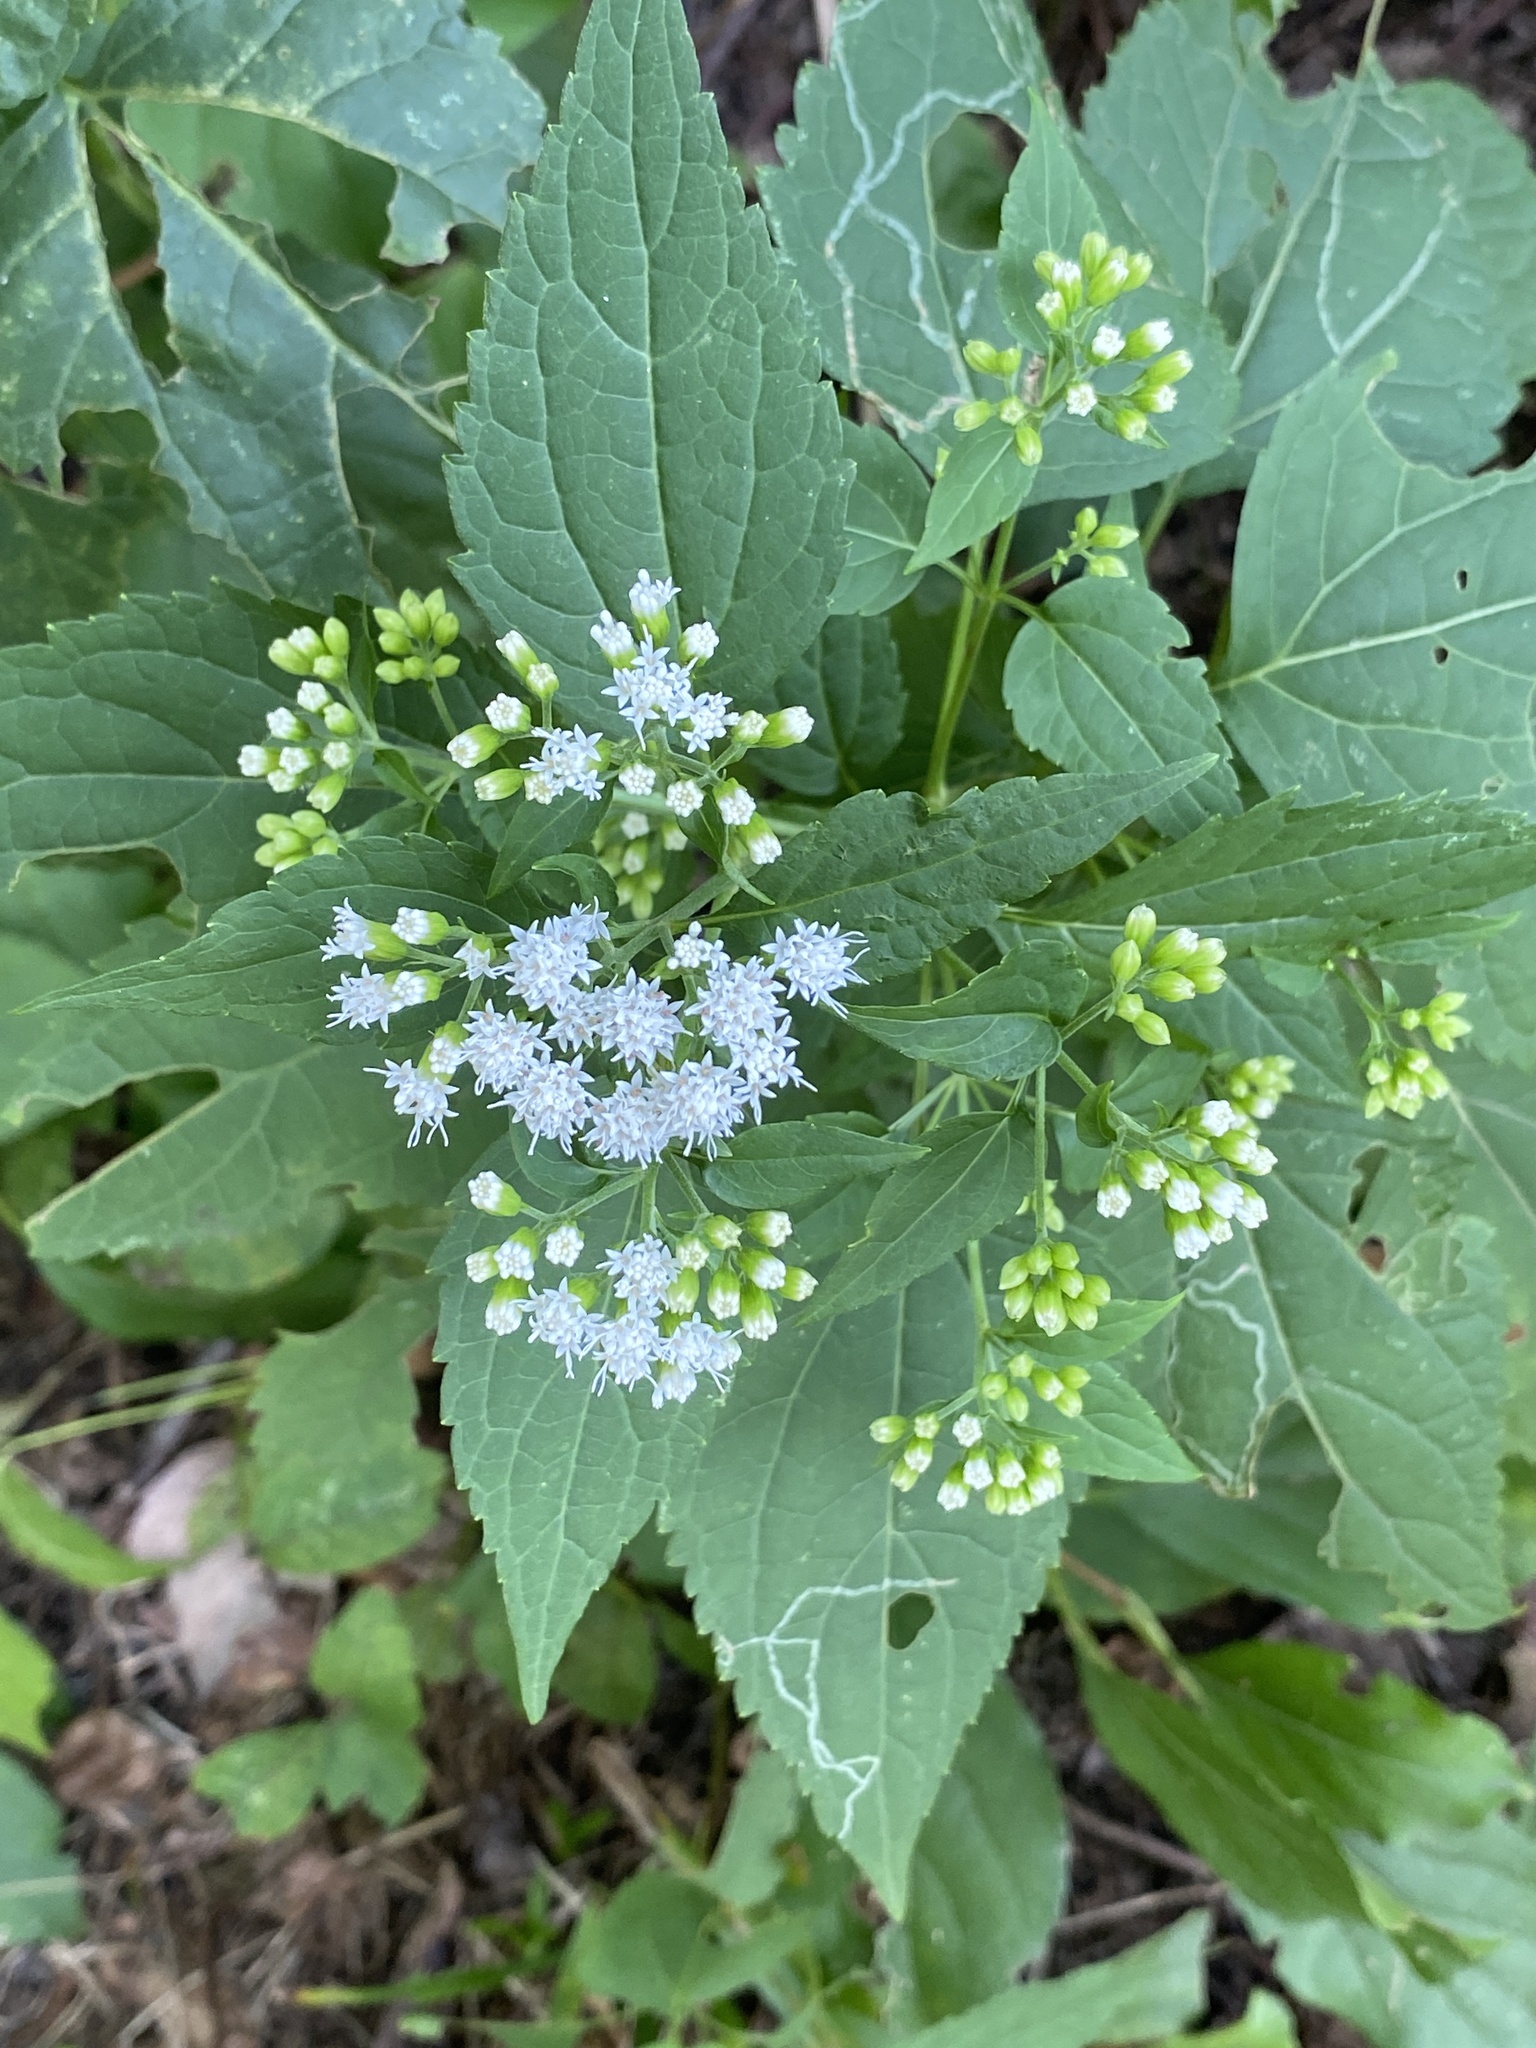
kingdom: Plantae
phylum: Tracheophyta
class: Magnoliopsida
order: Asterales
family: Asteraceae
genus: Ageratina
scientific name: Ageratina altissima
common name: White snakeroot
